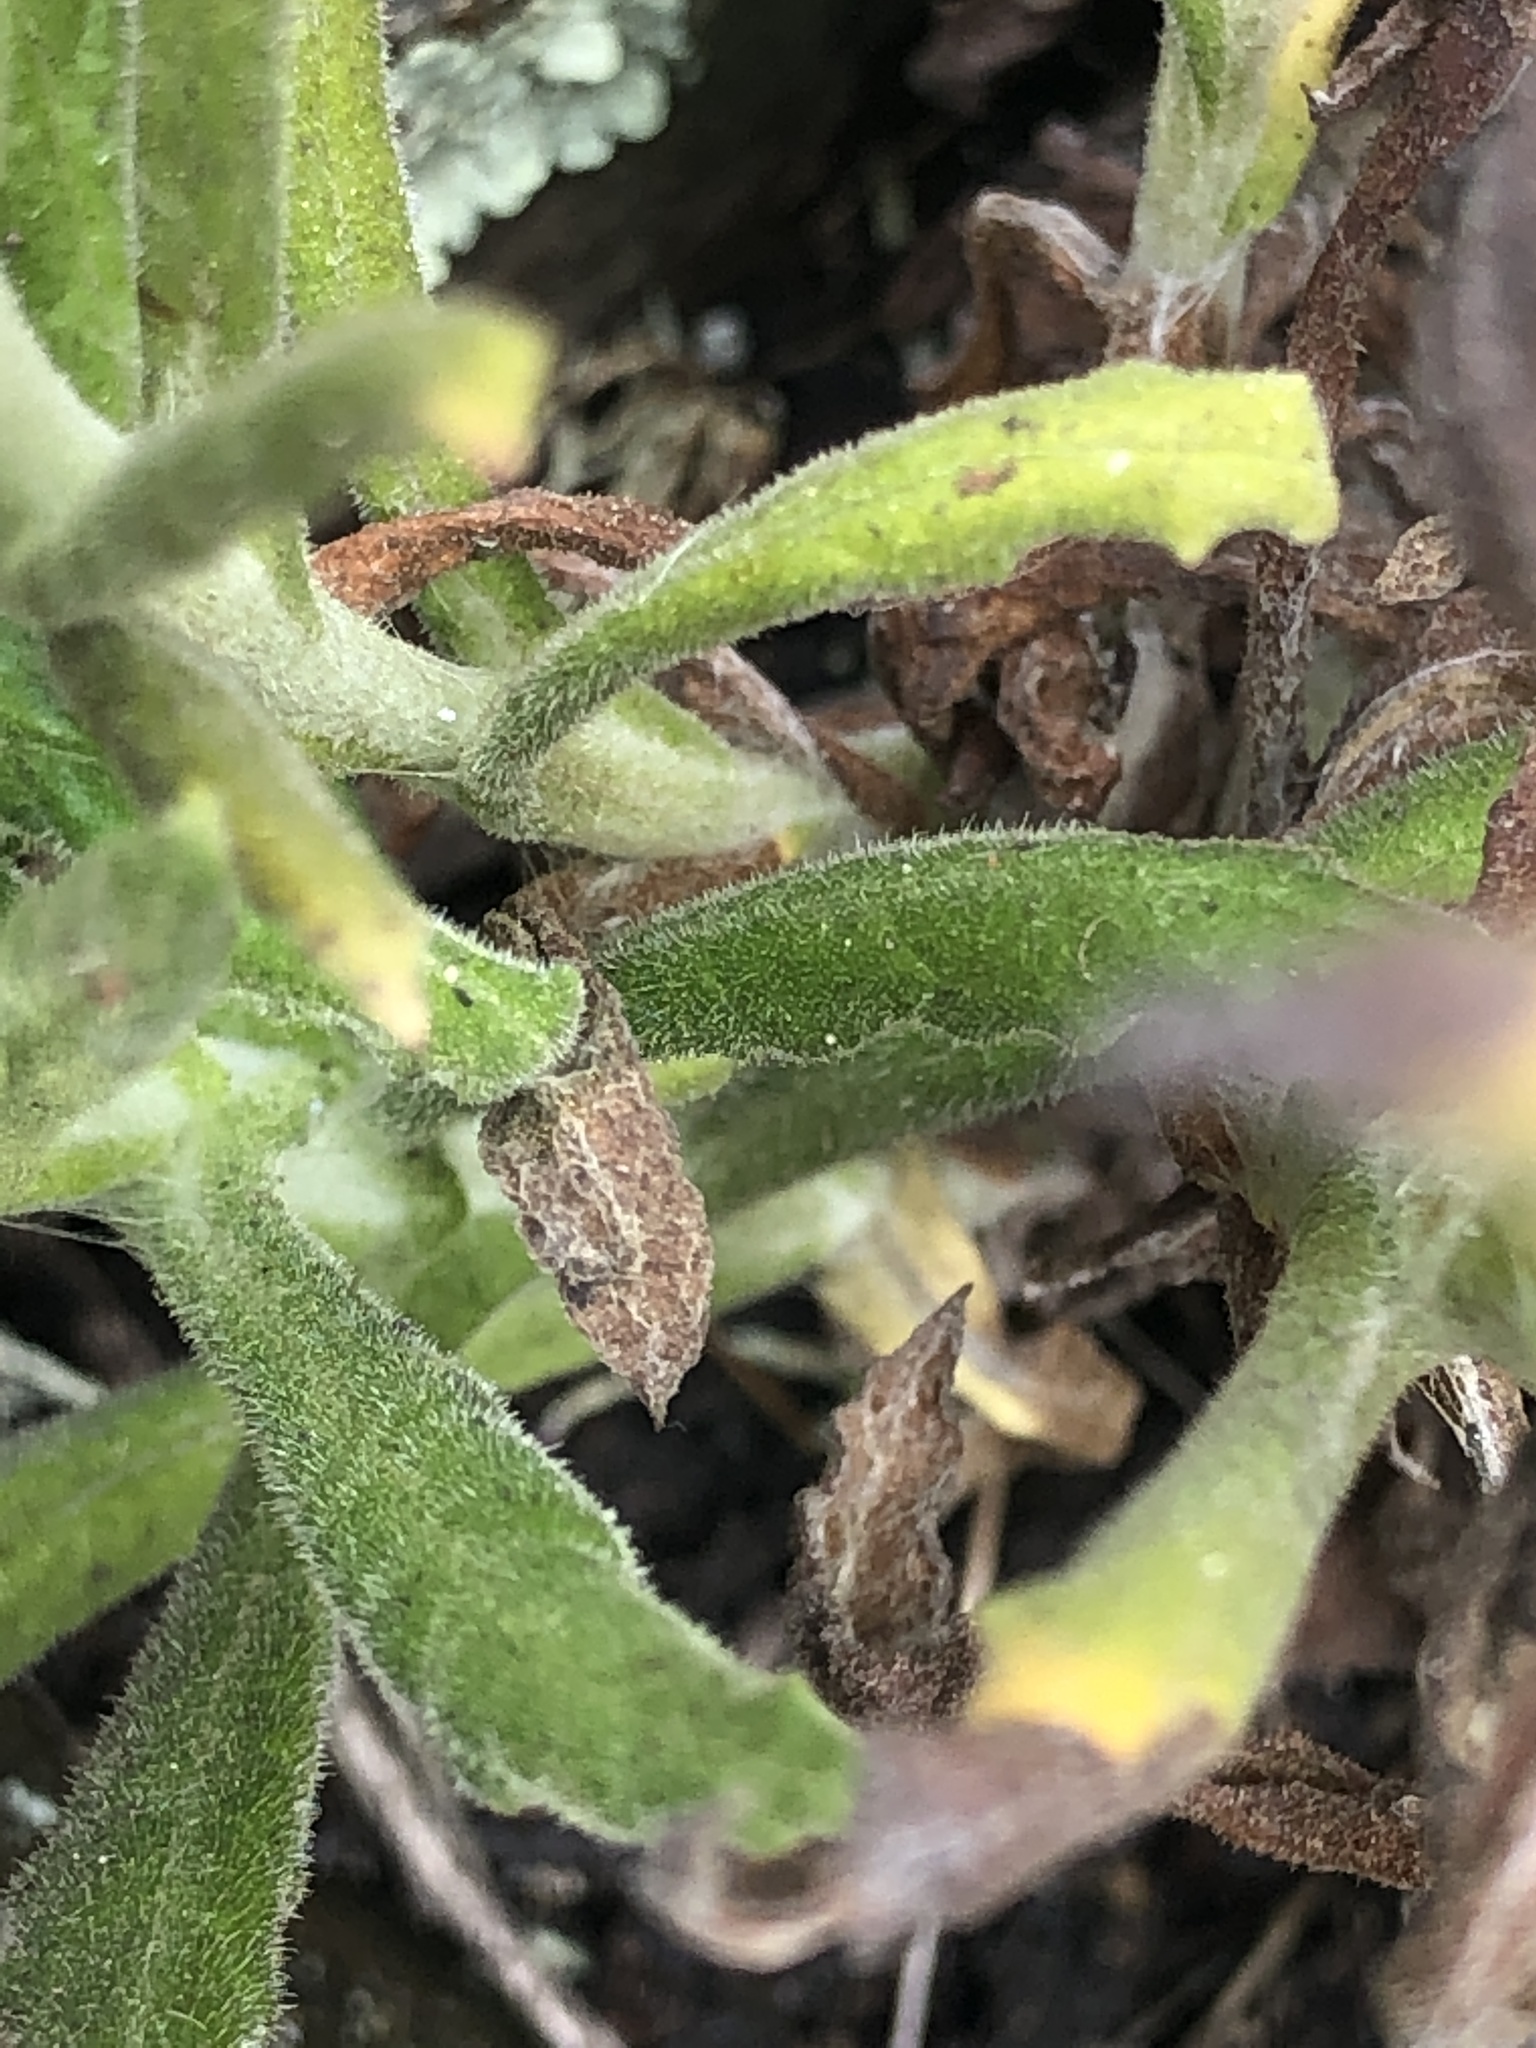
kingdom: Plantae
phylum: Tracheophyta
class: Magnoliopsida
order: Asterales
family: Asteraceae
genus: Pseudognaphalium
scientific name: Pseudognaphalium ramosissimum
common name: Pink rabbit-tobacco
